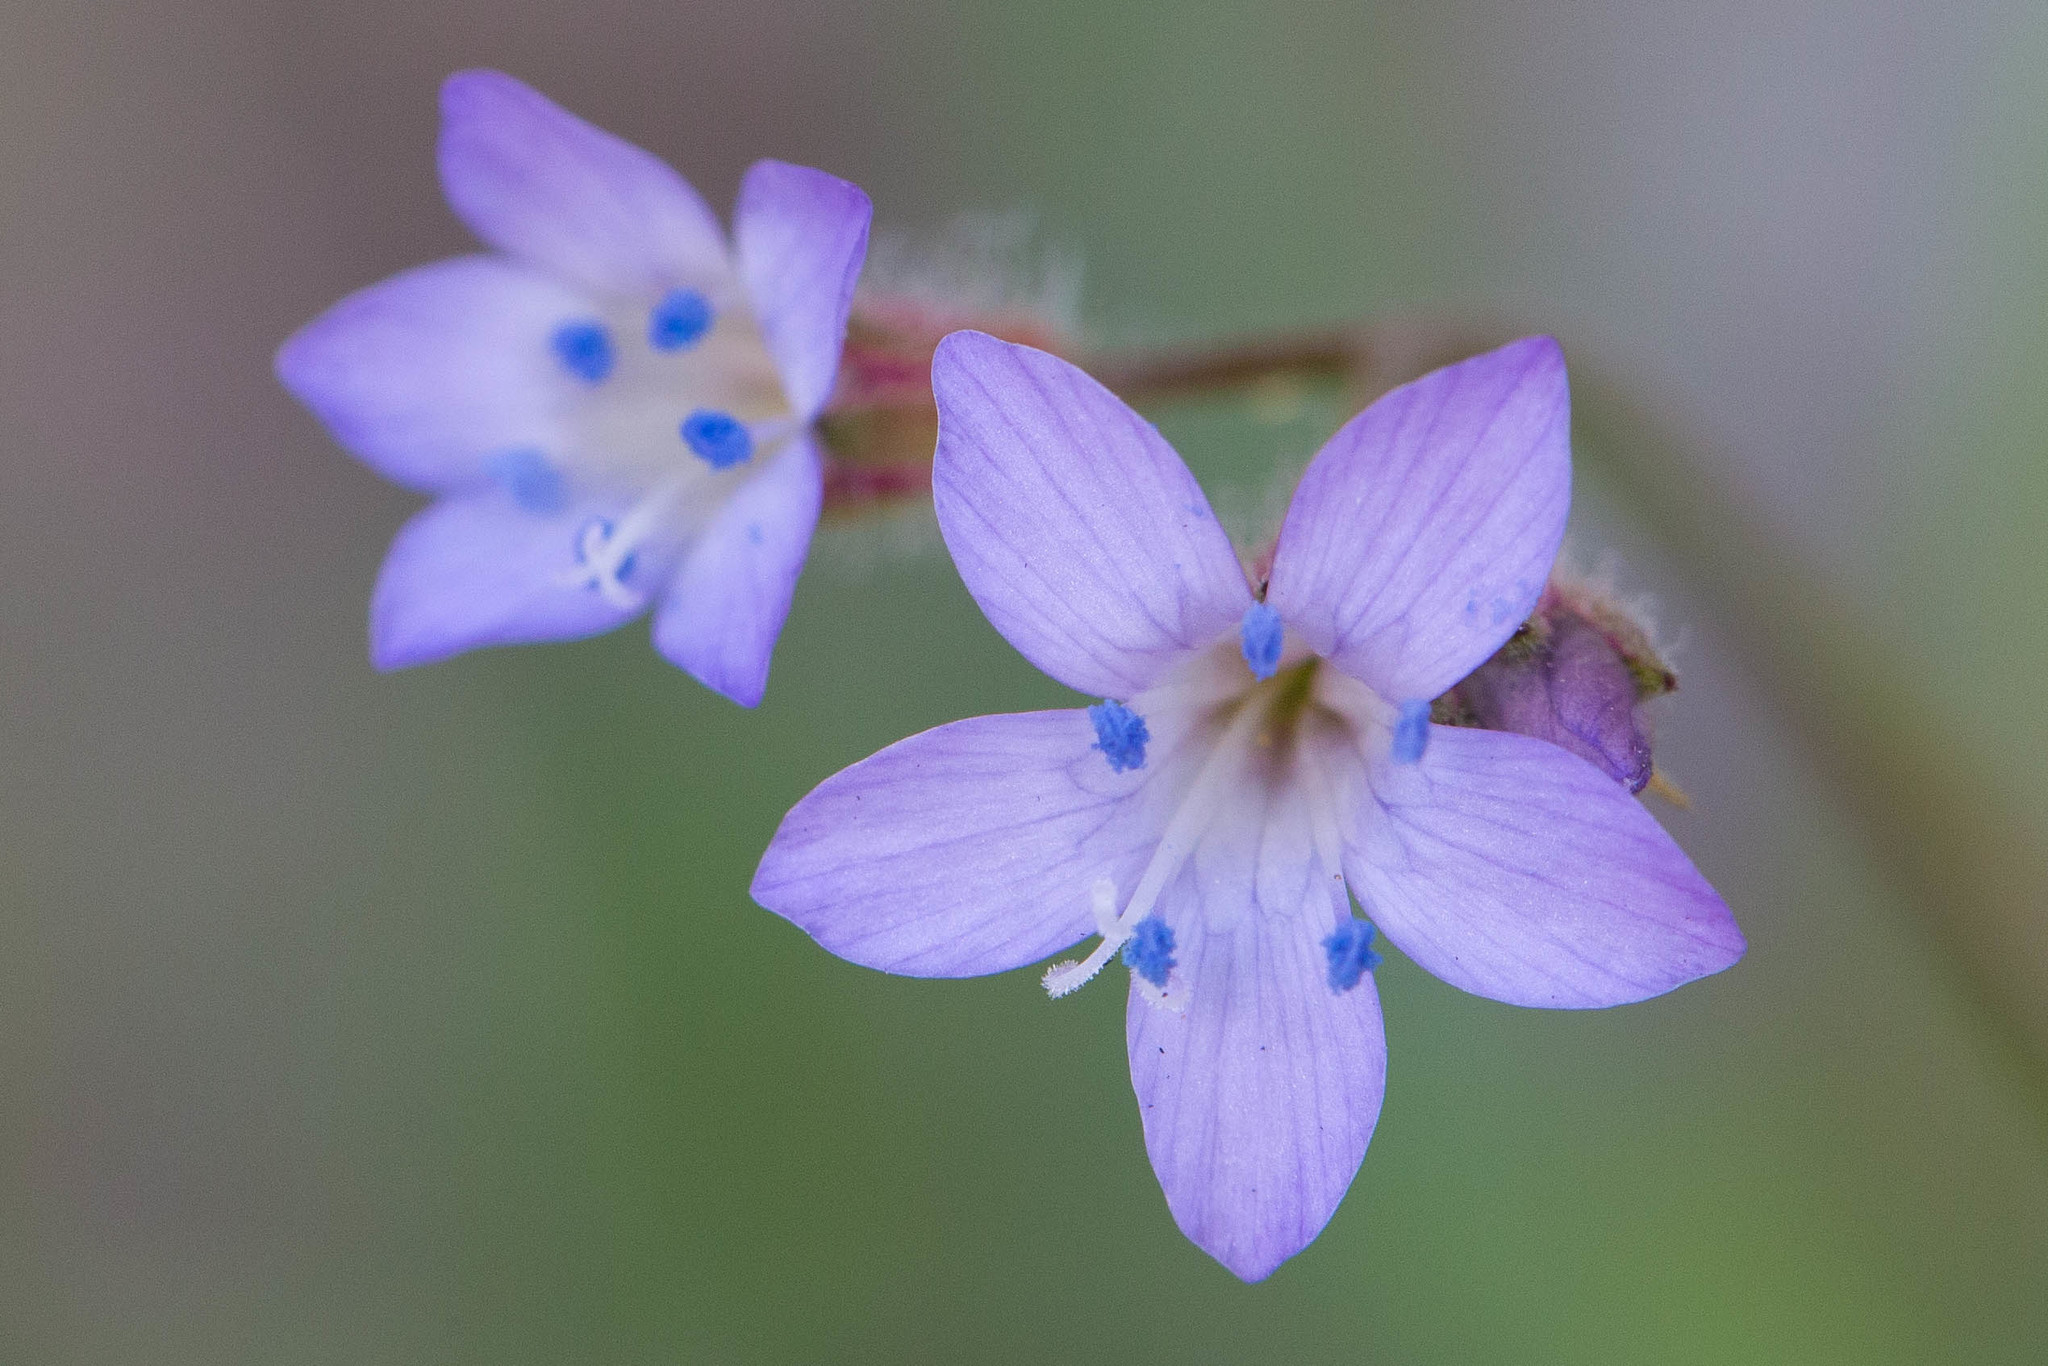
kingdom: Plantae
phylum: Tracheophyta
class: Magnoliopsida
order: Ericales
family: Polemoniaceae
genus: Gilia
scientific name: Gilia achilleifolia
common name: California gily-flower
